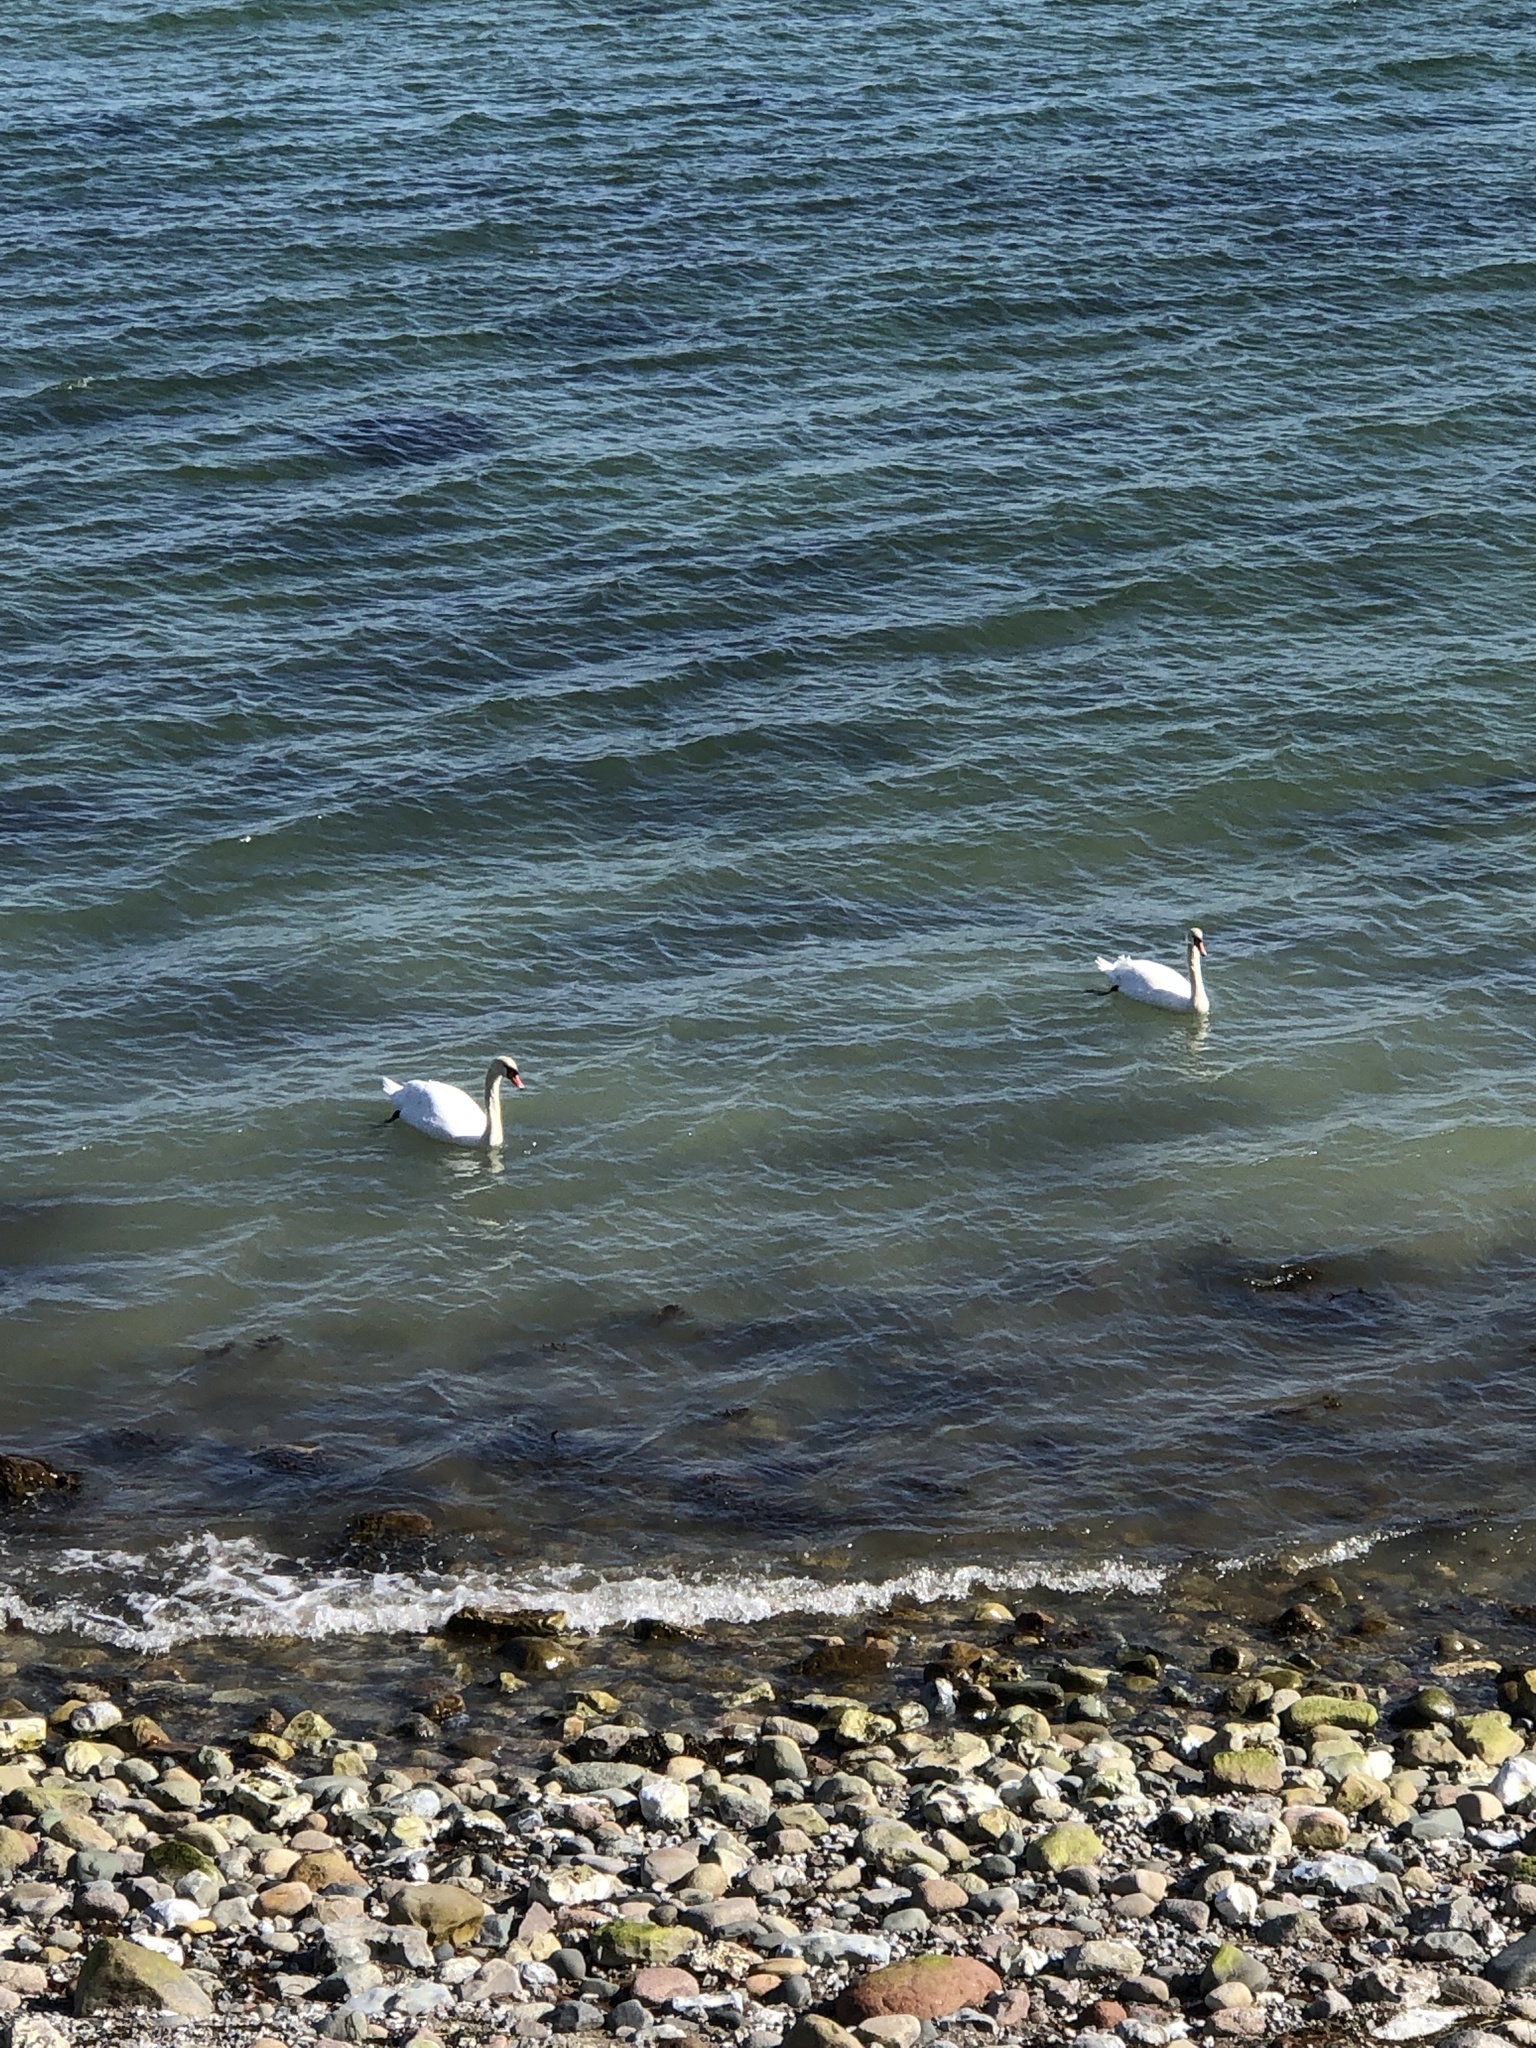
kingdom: Animalia
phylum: Chordata
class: Aves
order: Anseriformes
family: Anatidae
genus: Cygnus
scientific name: Cygnus olor
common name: Mute swan
